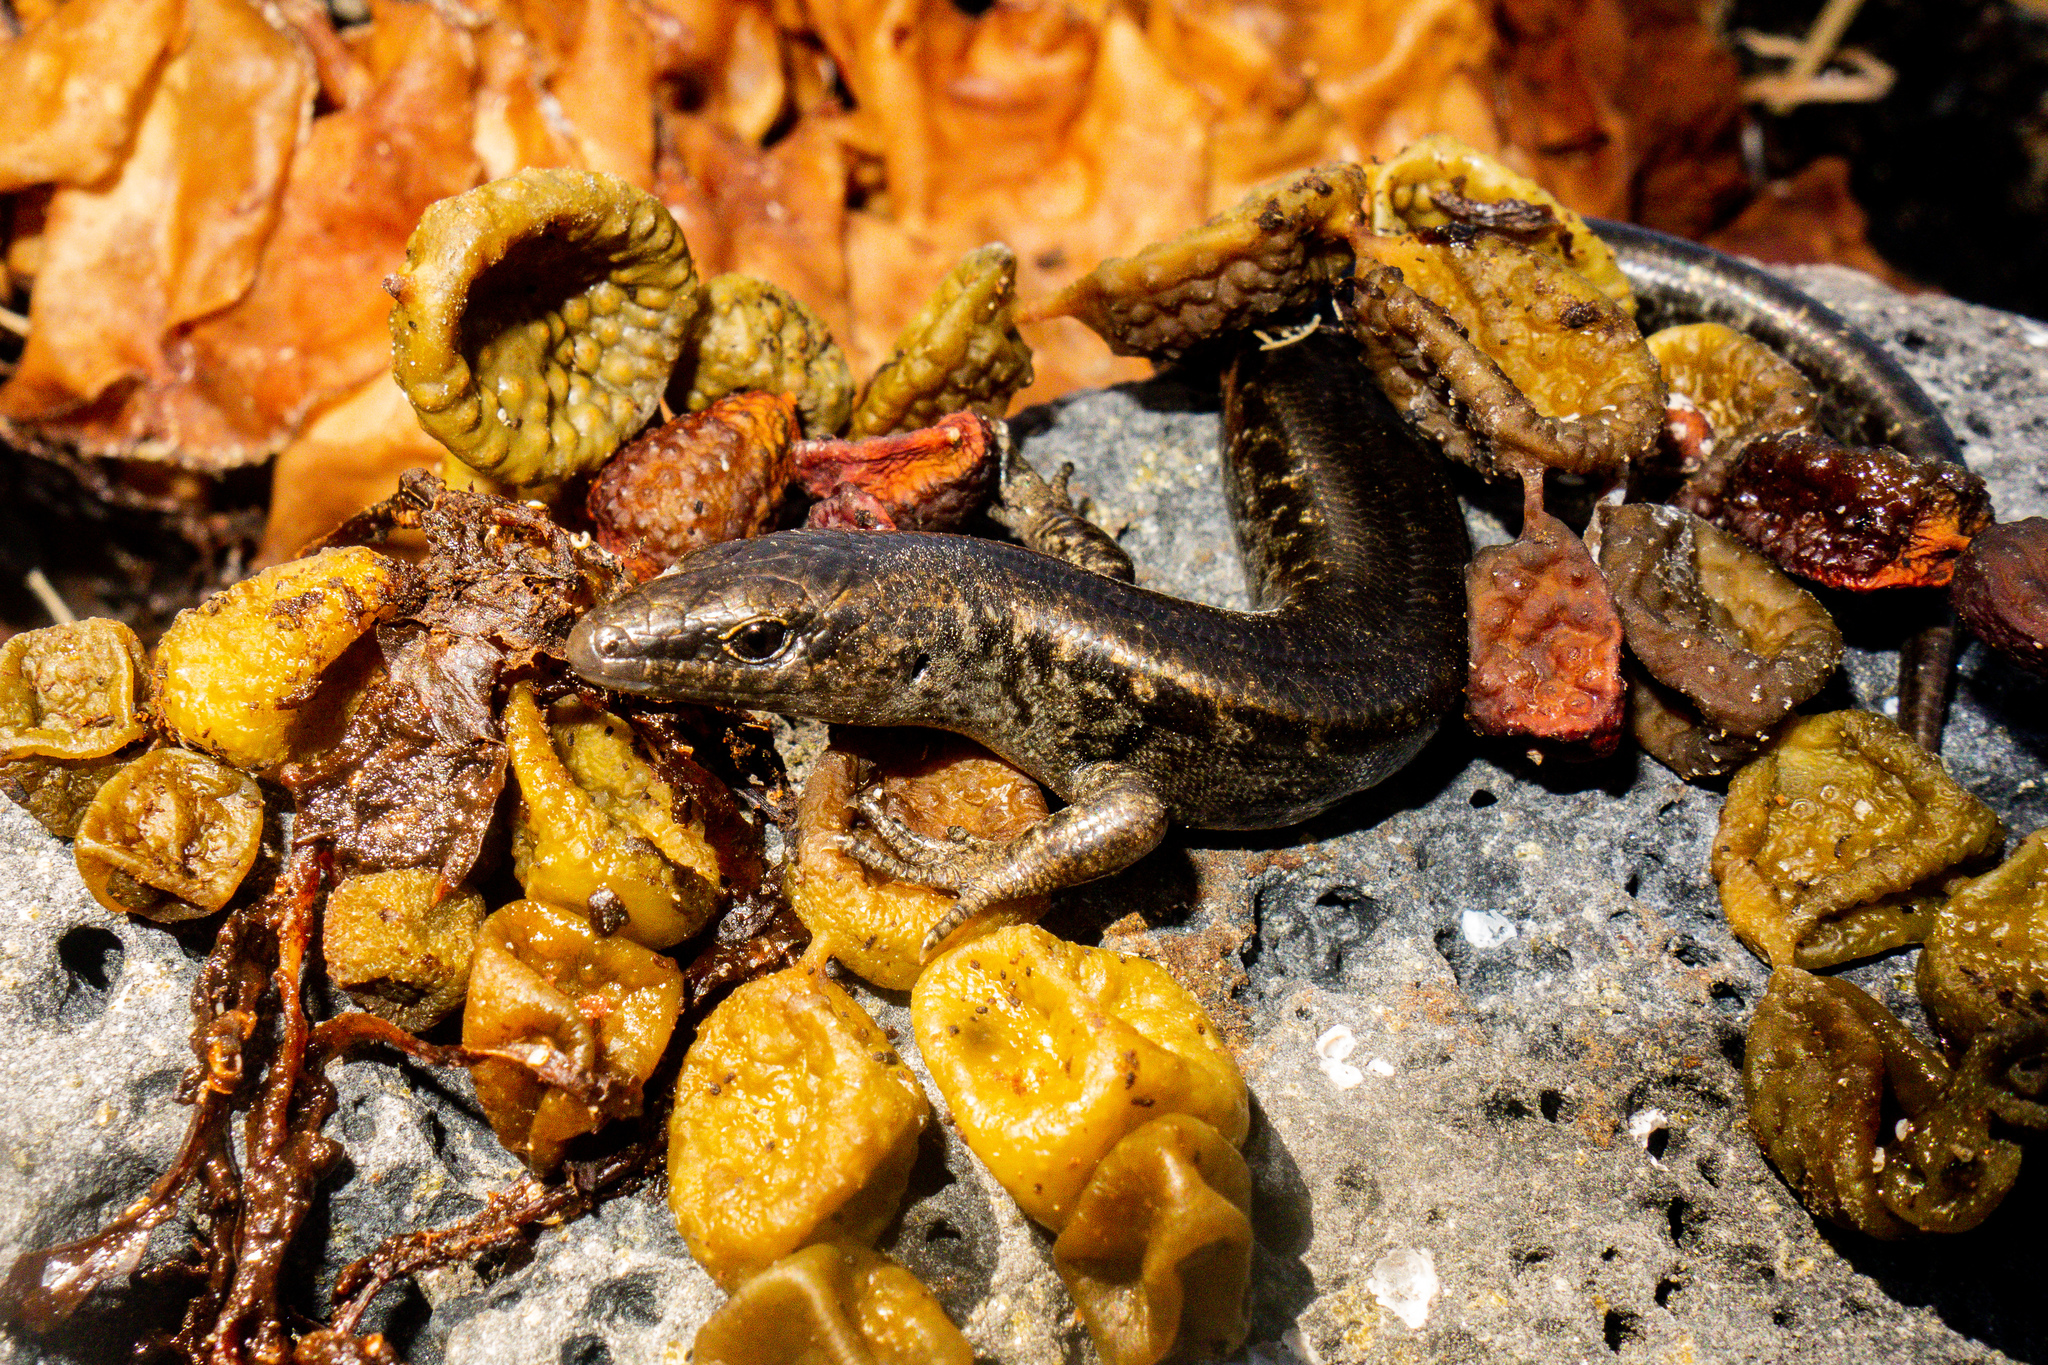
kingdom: Animalia
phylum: Chordata
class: Squamata
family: Scincidae
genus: Oligosoma
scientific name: Oligosoma suteri
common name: Egg-laying skink
